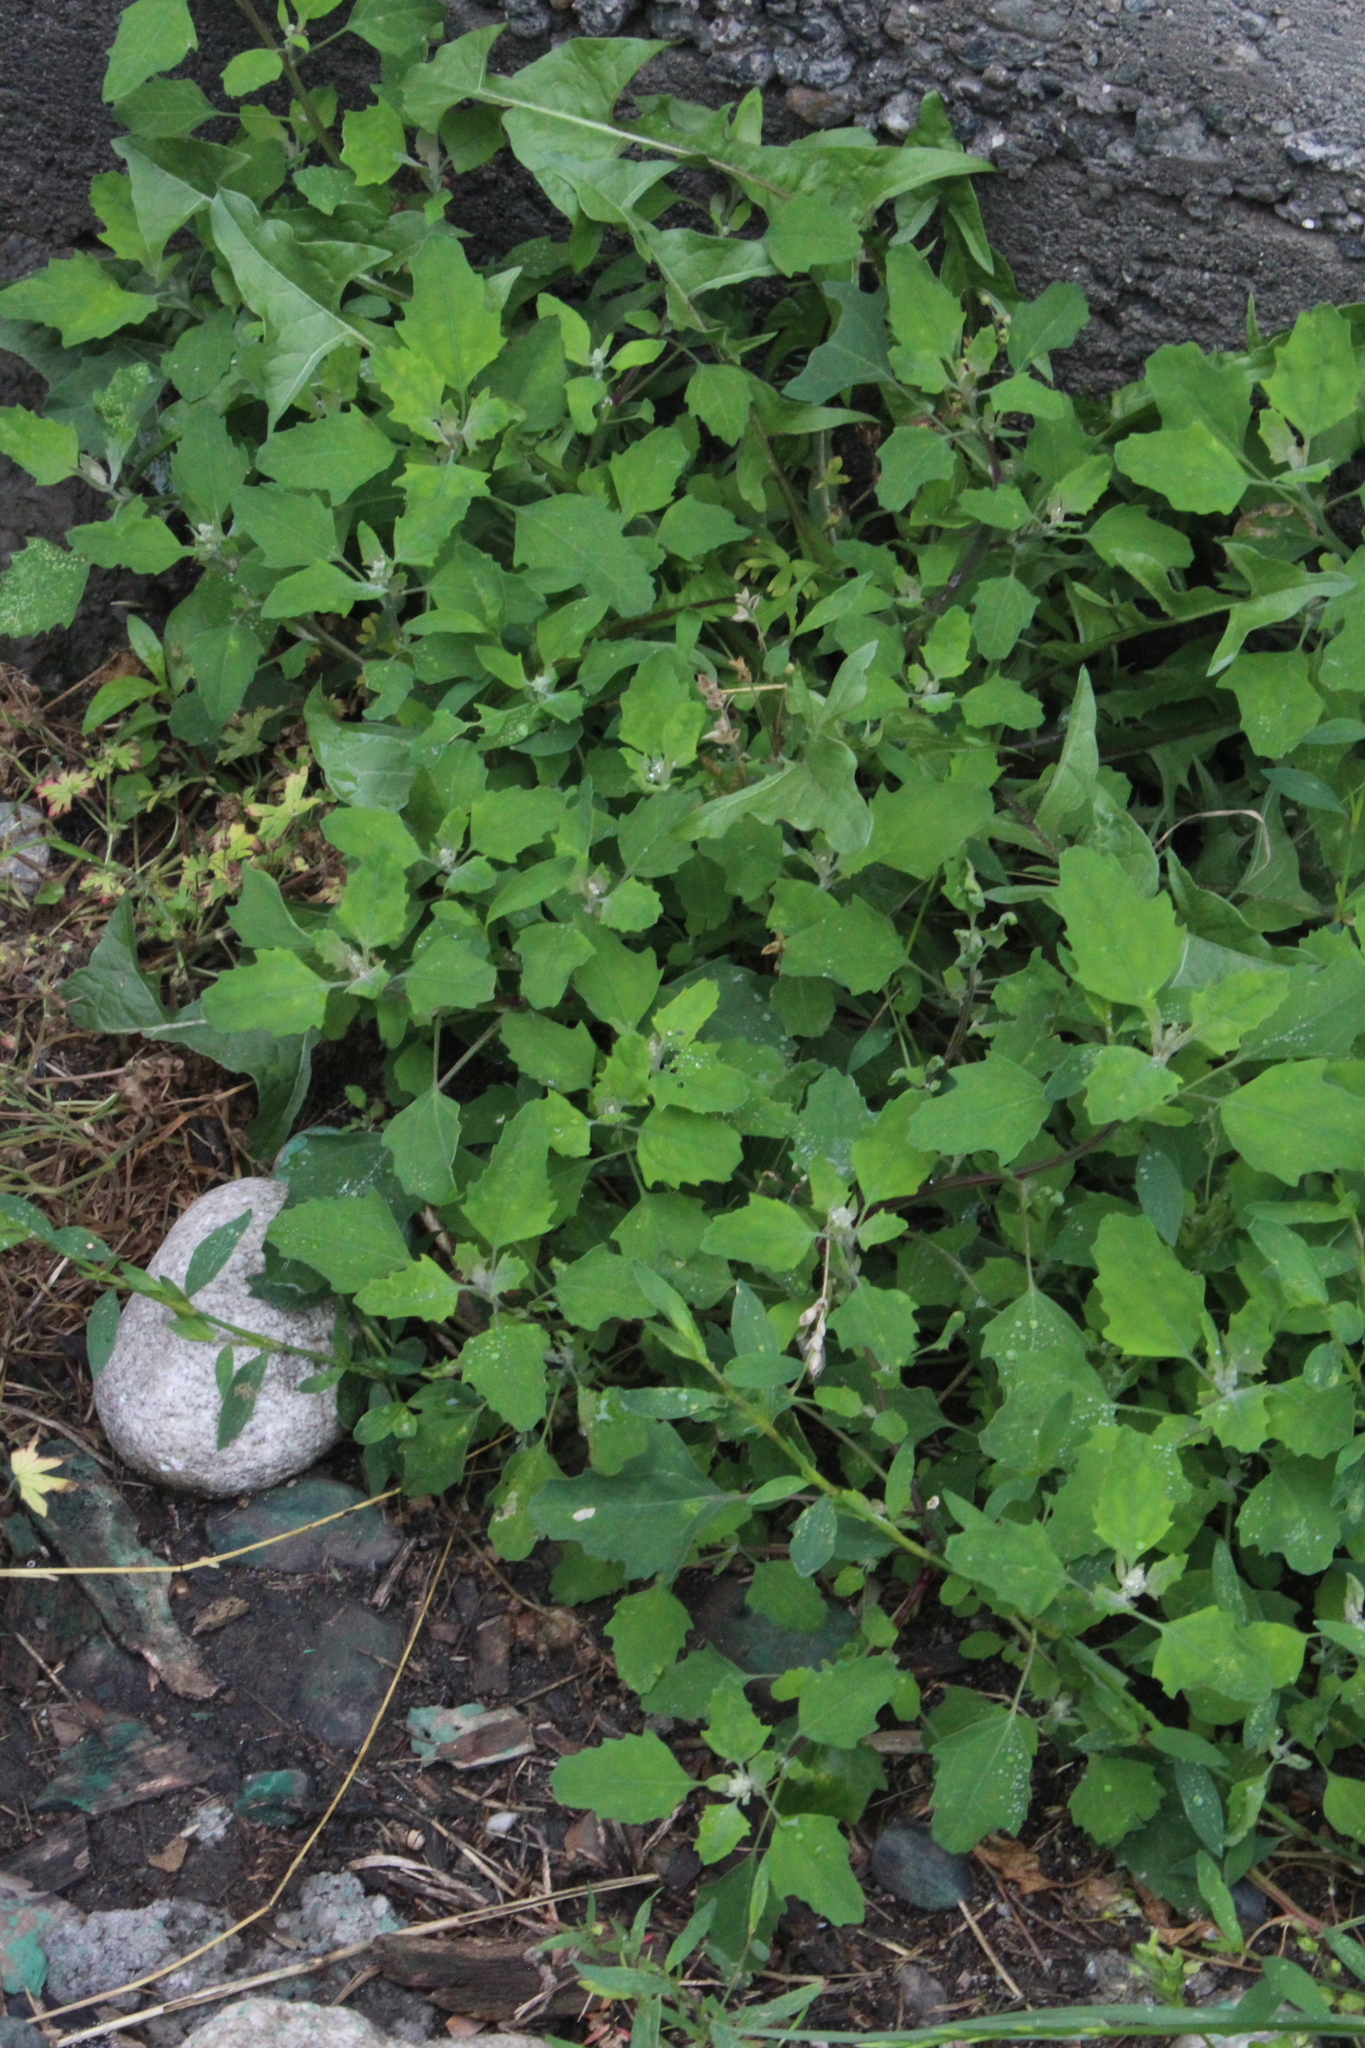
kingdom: Plantae
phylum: Tracheophyta
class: Magnoliopsida
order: Caryophyllales
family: Amaranthaceae
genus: Chenopodium
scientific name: Chenopodium album
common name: Fat-hen
